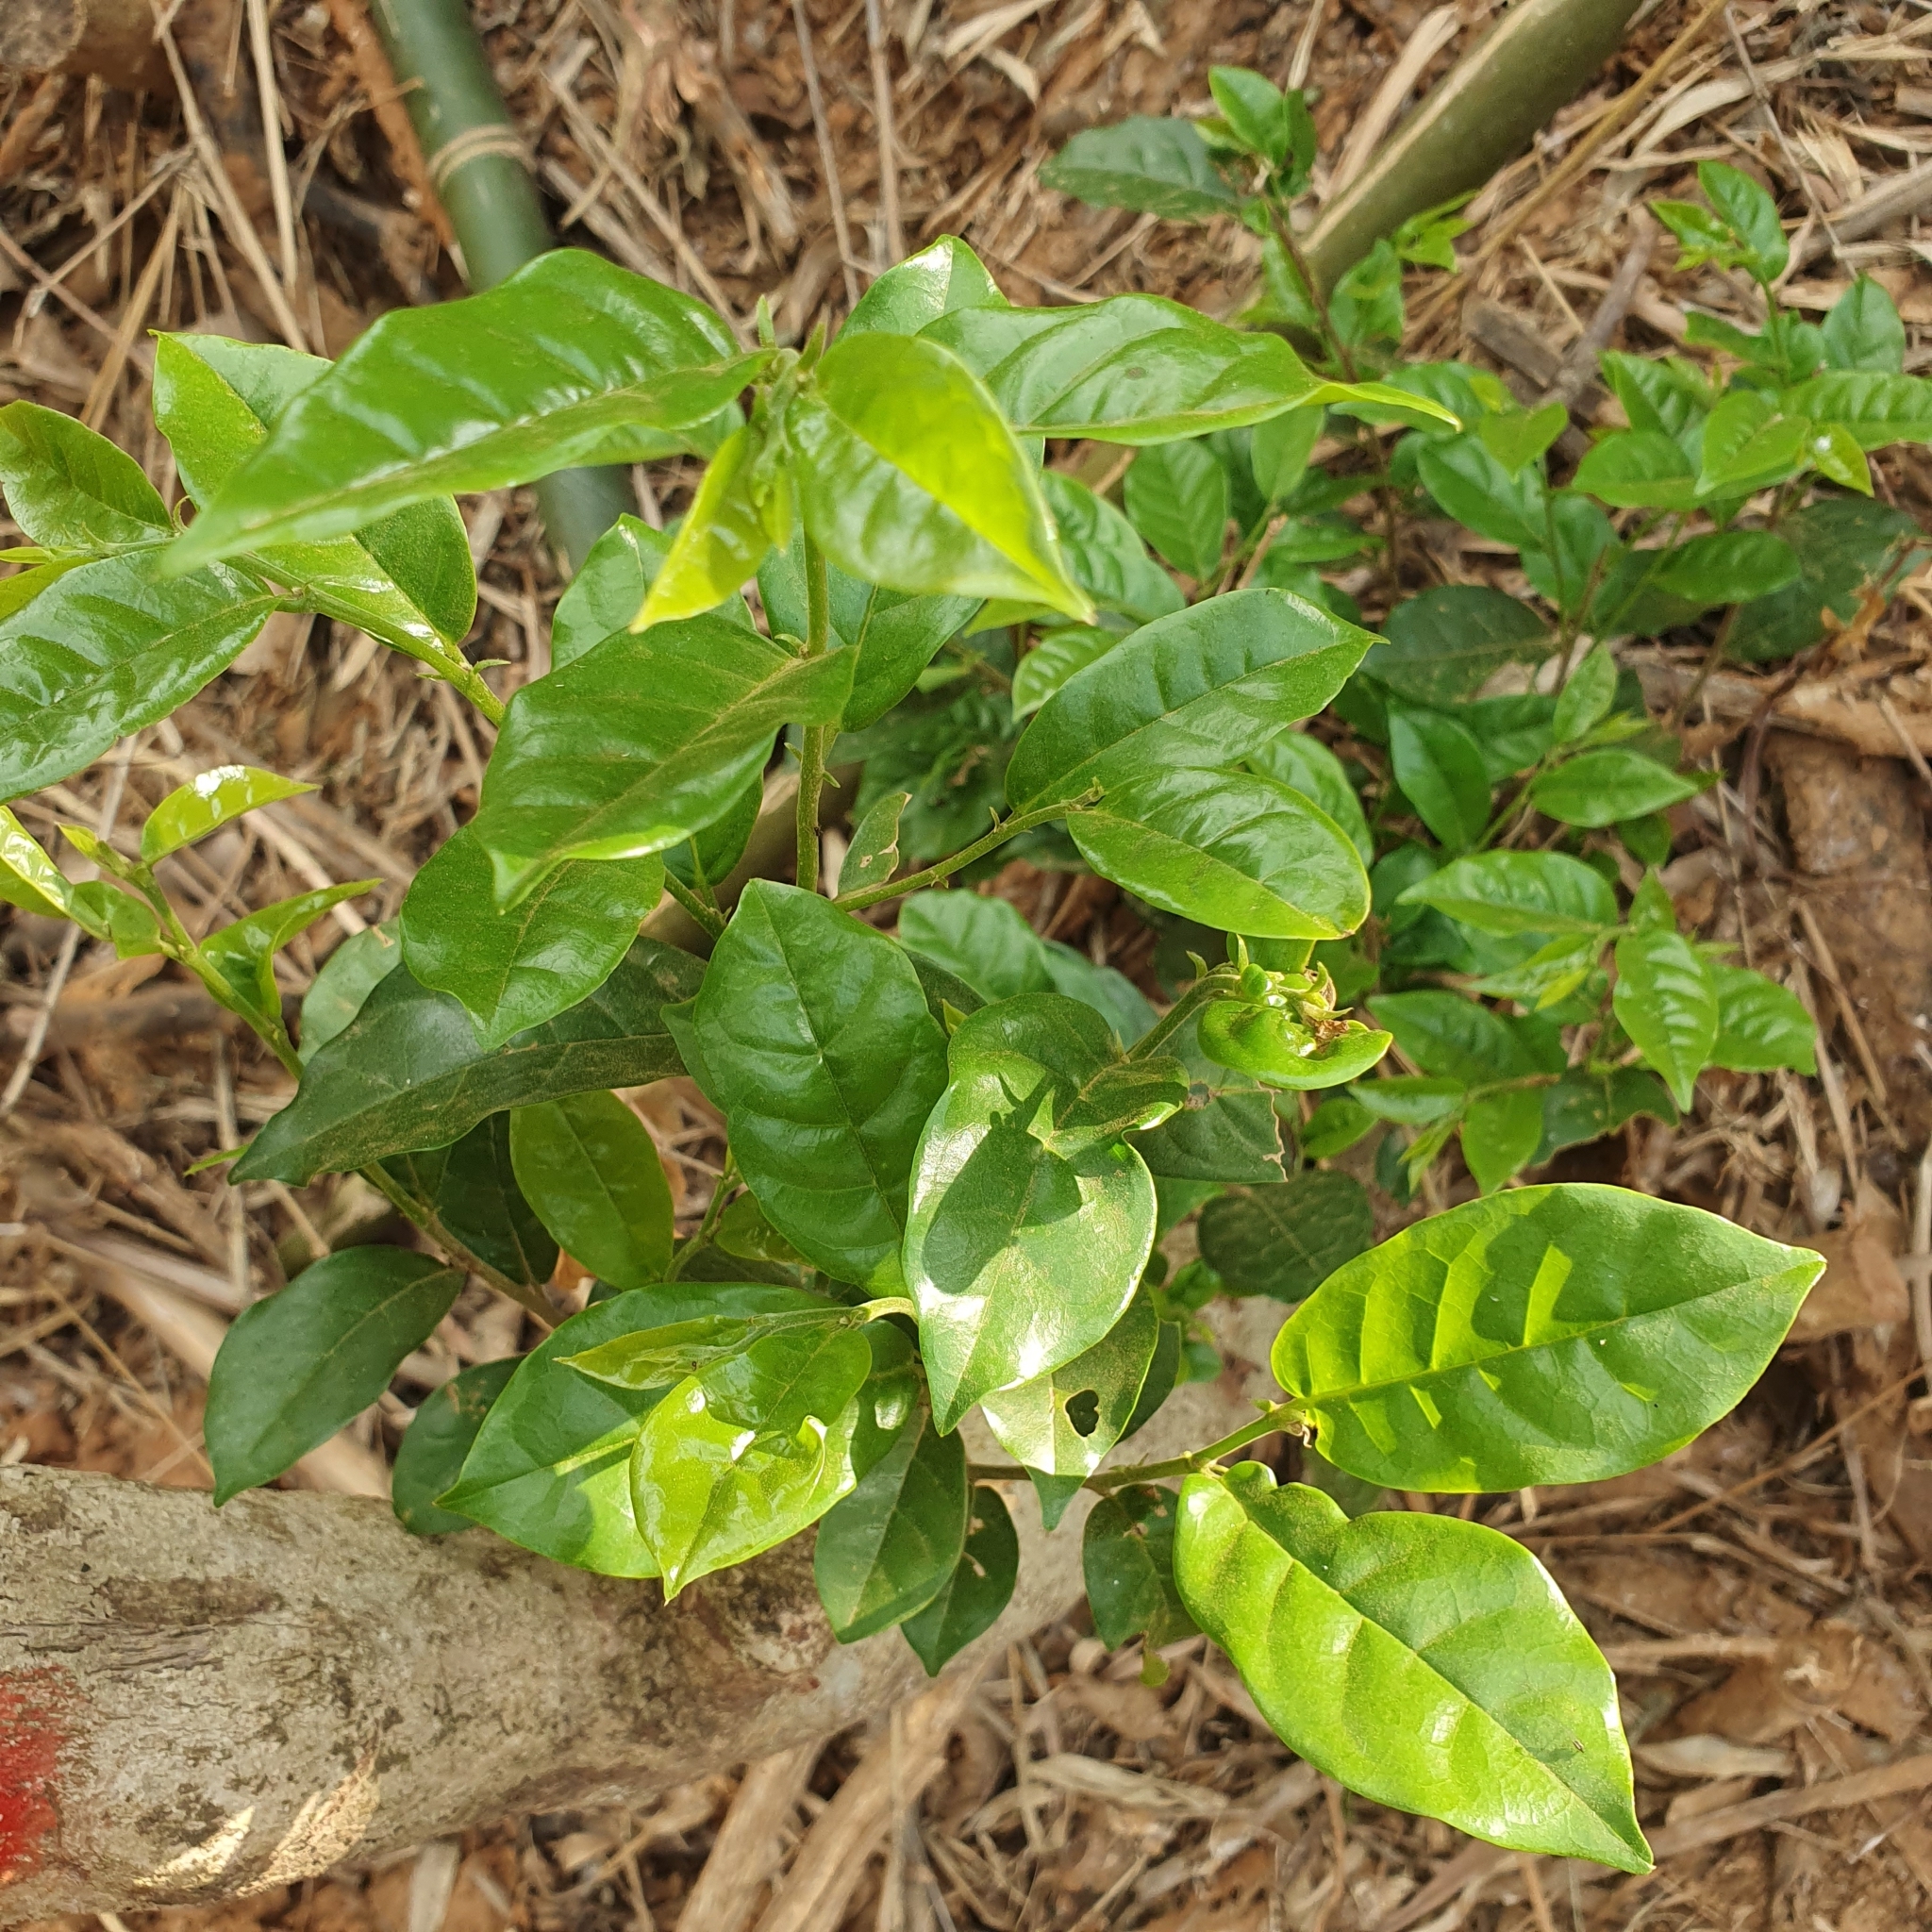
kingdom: Plantae
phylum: Tracheophyta
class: Magnoliopsida
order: Malpighiales
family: Phyllanthaceae
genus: Antidesma
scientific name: Antidesma montanum
